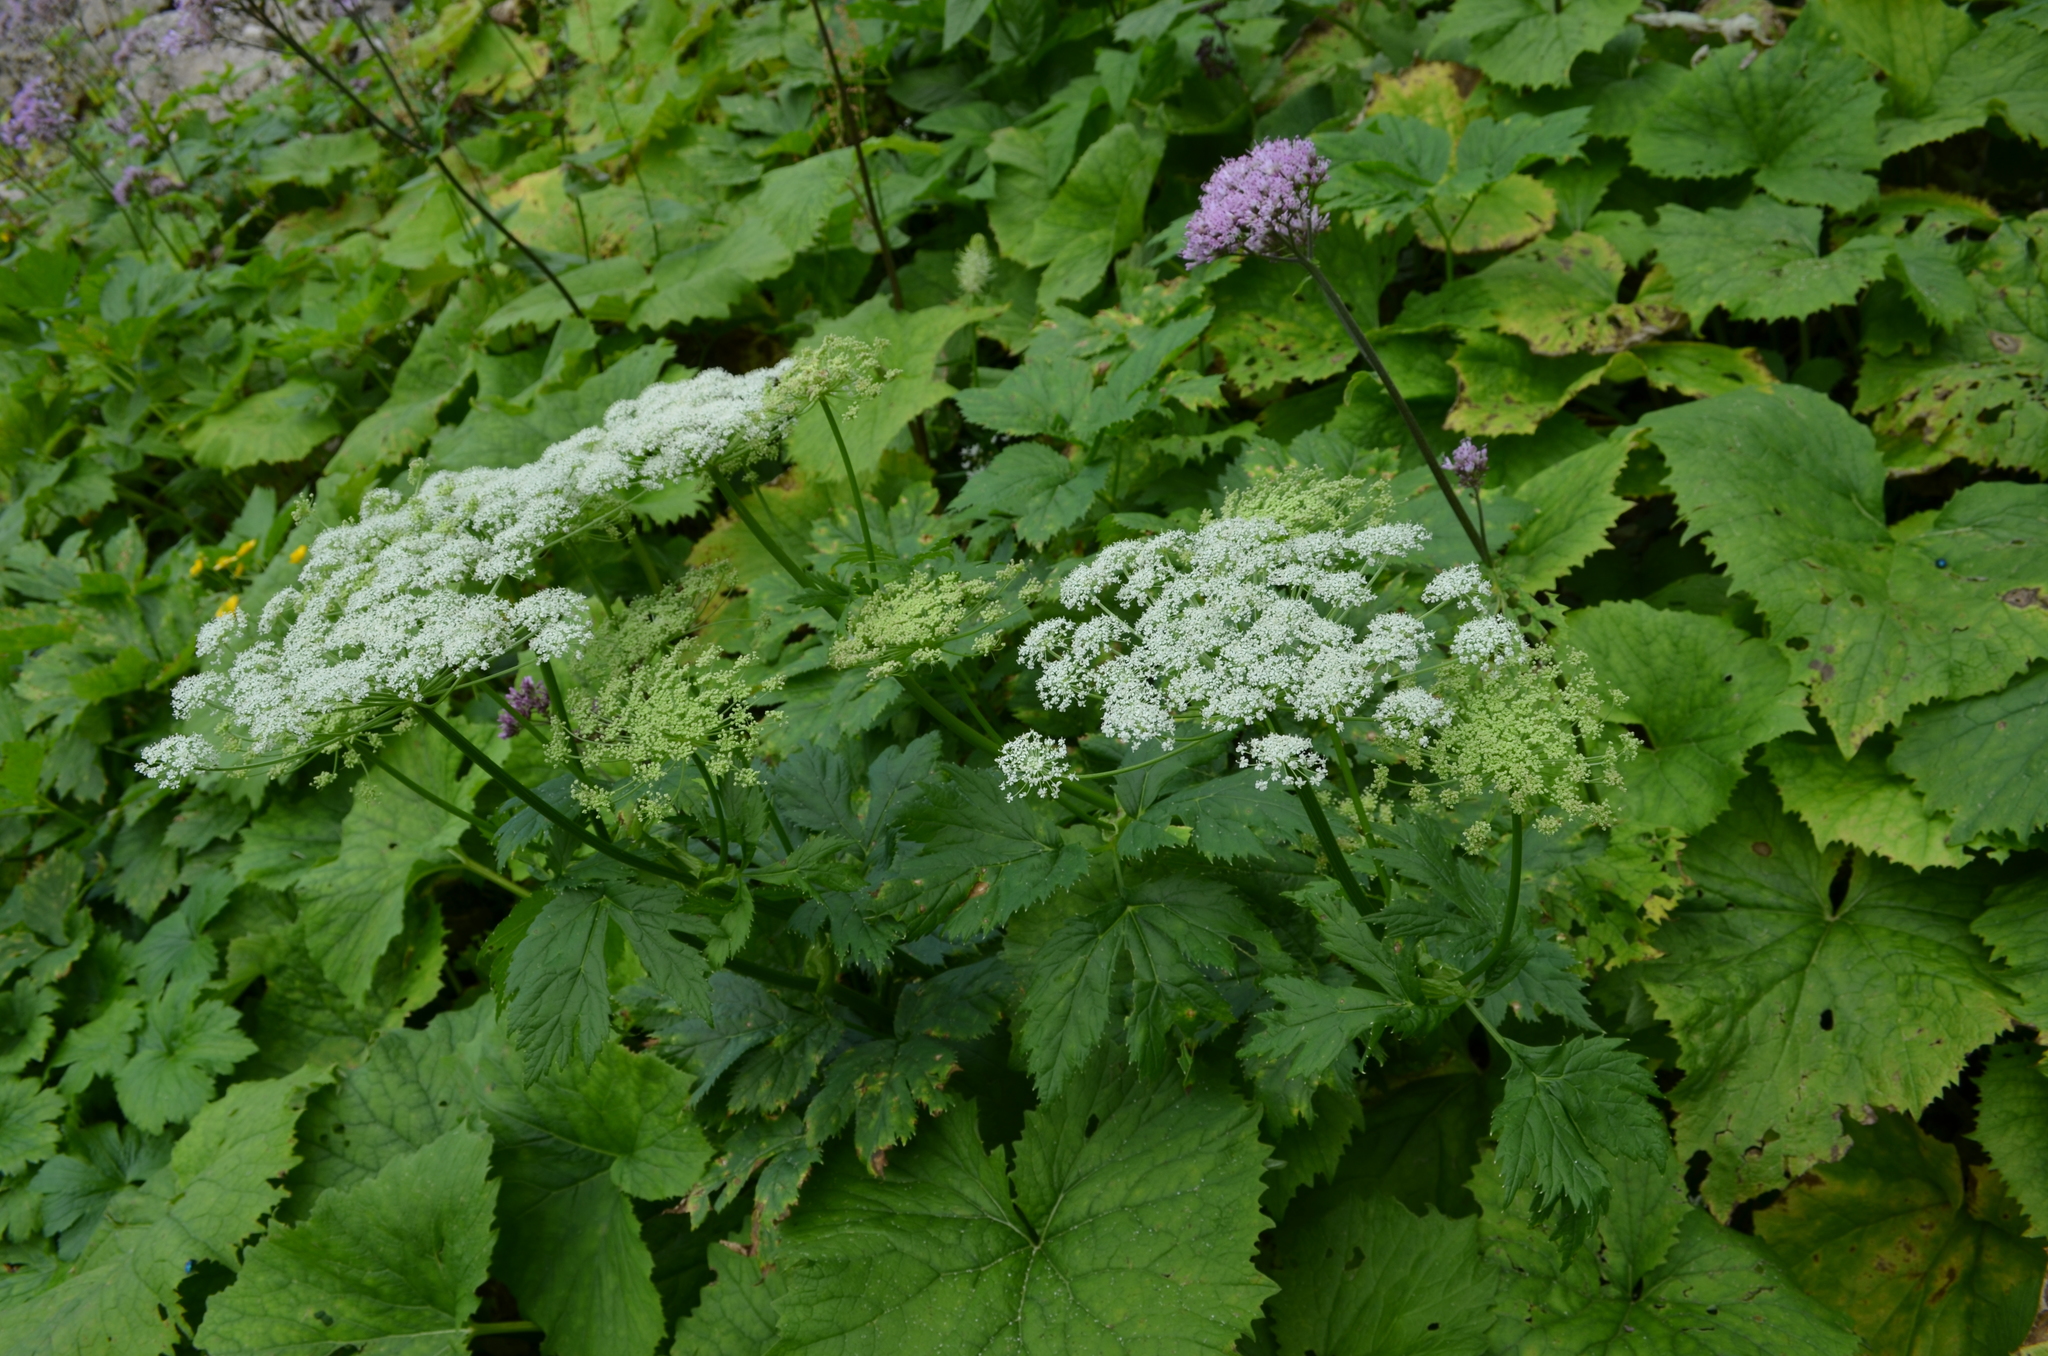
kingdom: Plantae
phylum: Tracheophyta
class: Magnoliopsida
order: Apiales
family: Apiaceae
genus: Imperatoria
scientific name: Imperatoria ostruthium
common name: Masterwort
